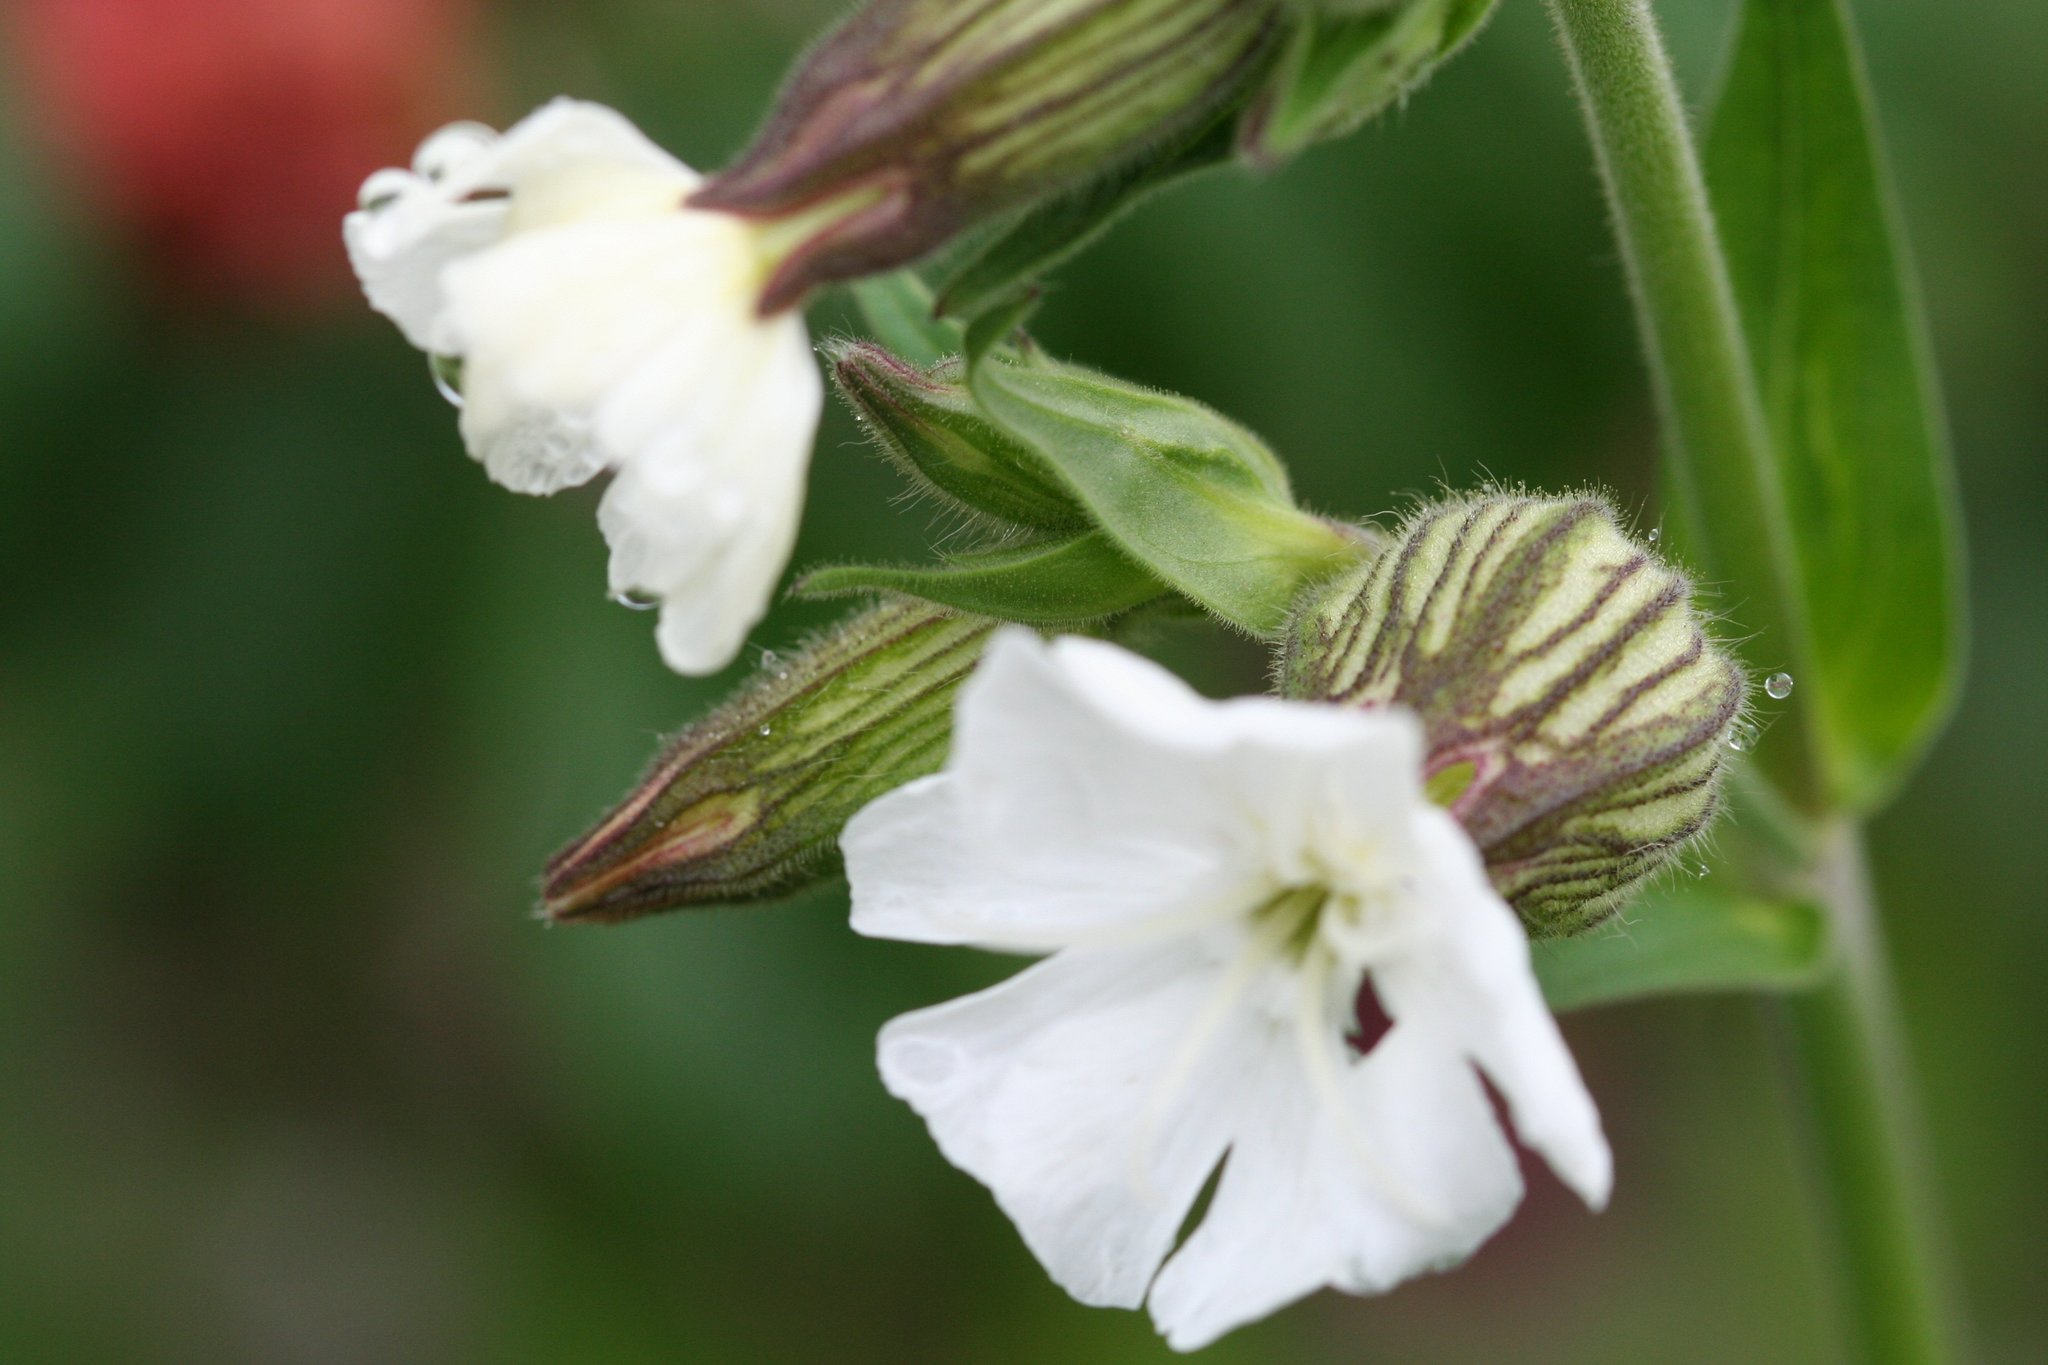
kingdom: Plantae
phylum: Tracheophyta
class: Magnoliopsida
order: Caryophyllales
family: Caryophyllaceae
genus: Silene
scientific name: Silene latifolia
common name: White campion
